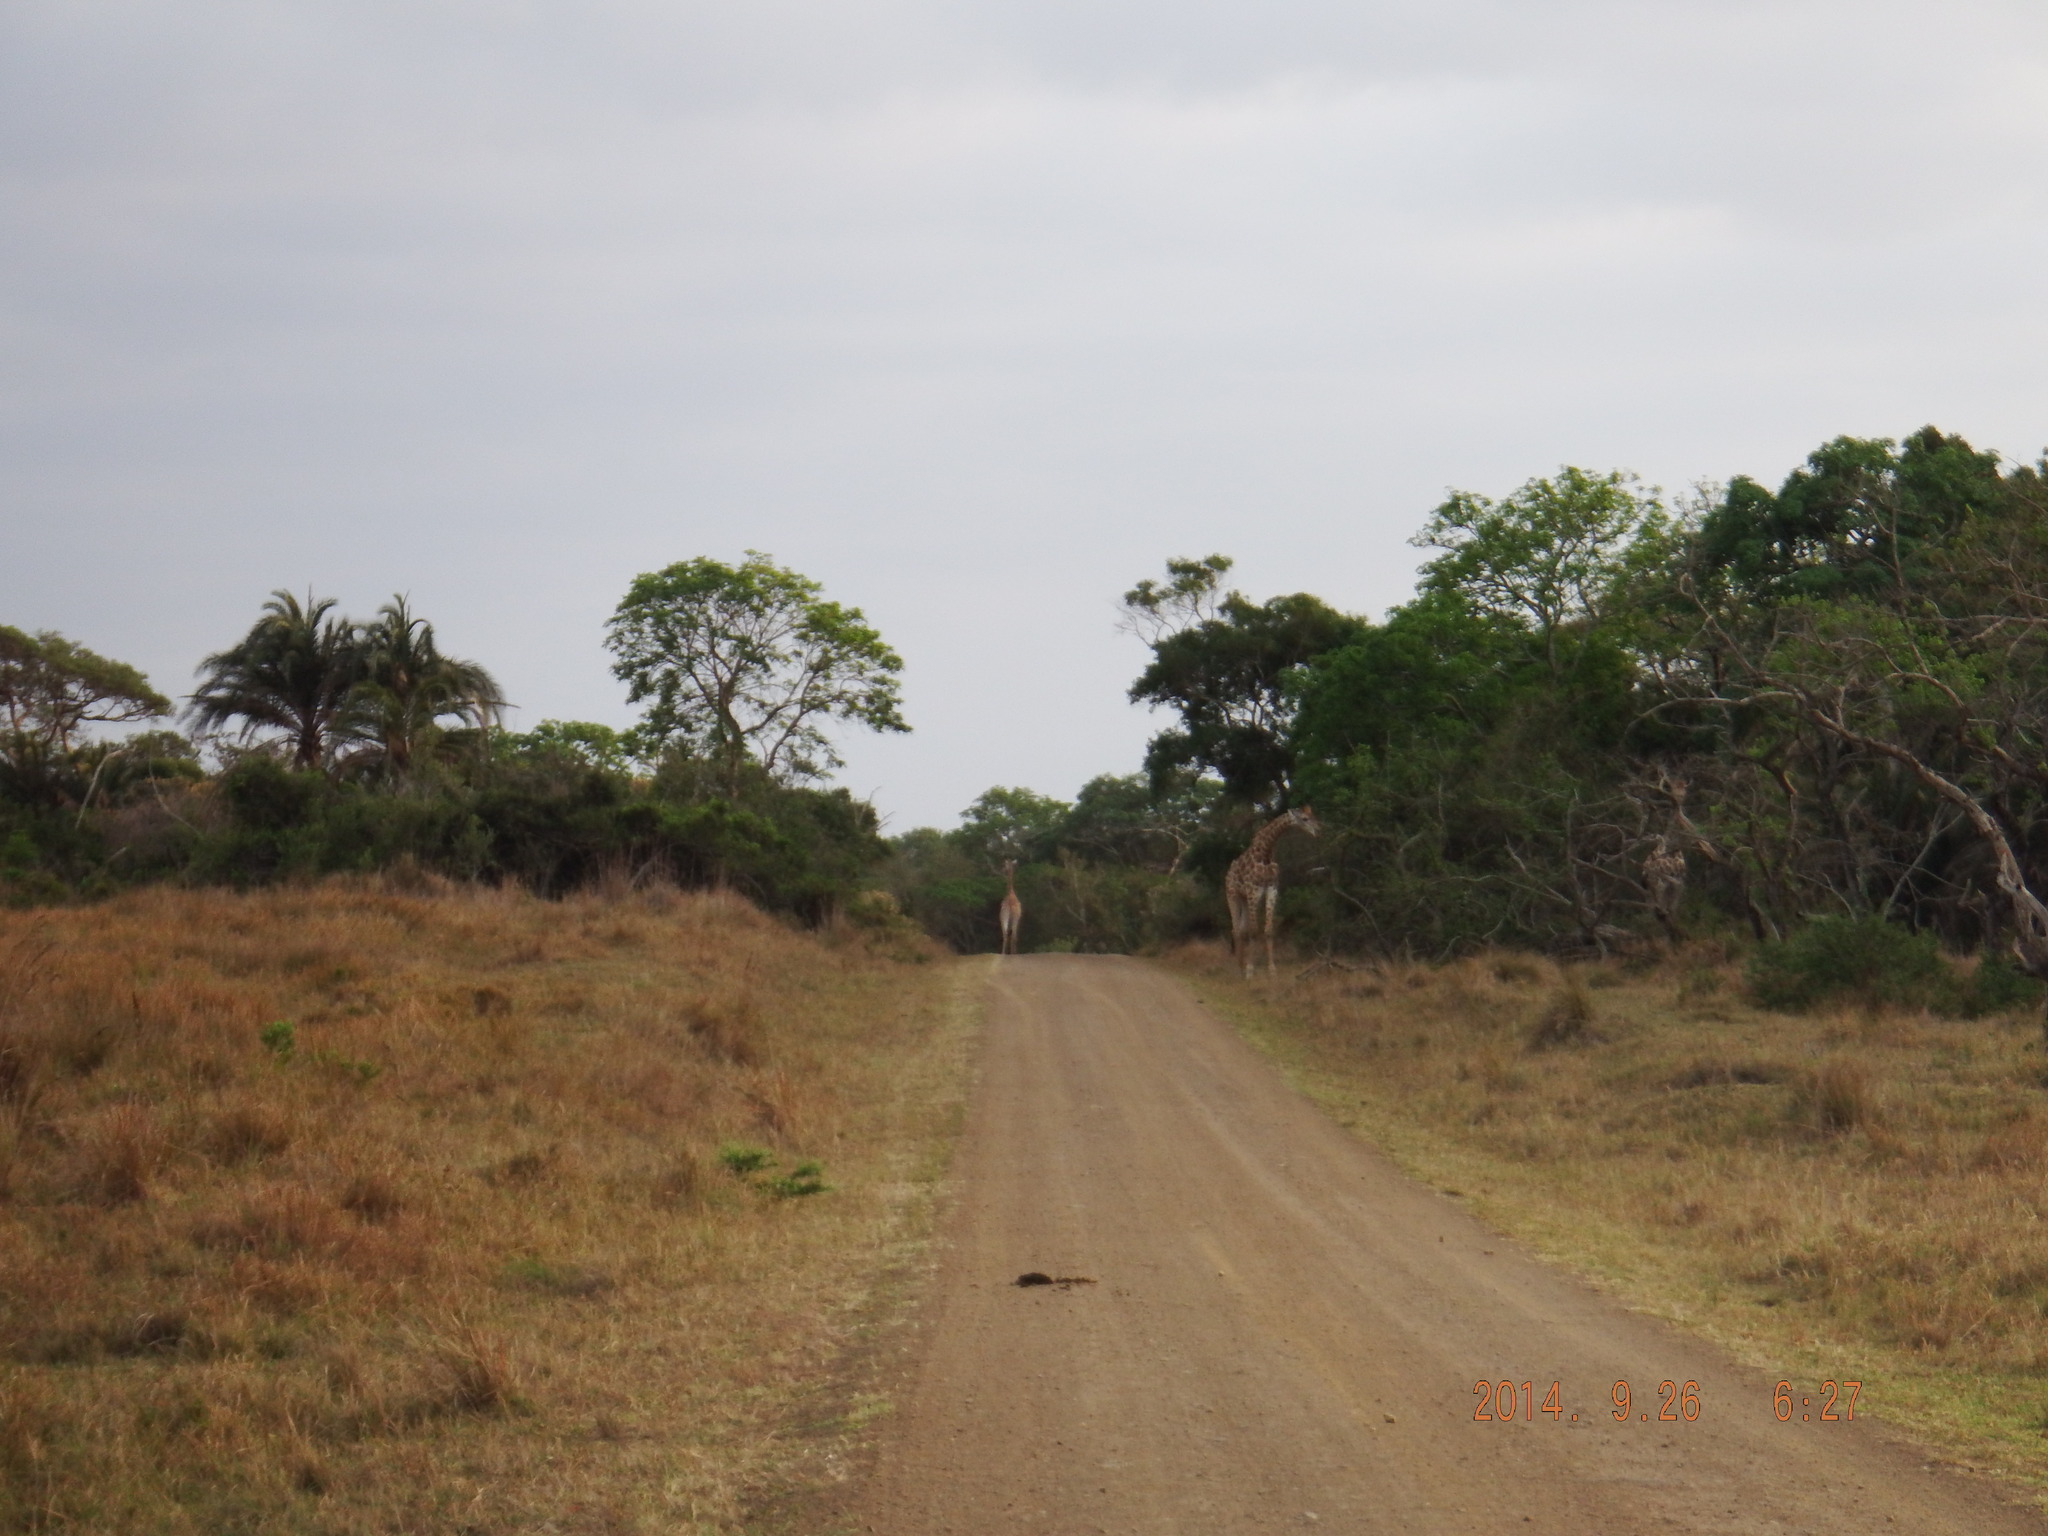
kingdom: Animalia
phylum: Chordata
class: Mammalia
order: Artiodactyla
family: Giraffidae
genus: Giraffa
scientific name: Giraffa giraffa
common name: Southern giraffe
